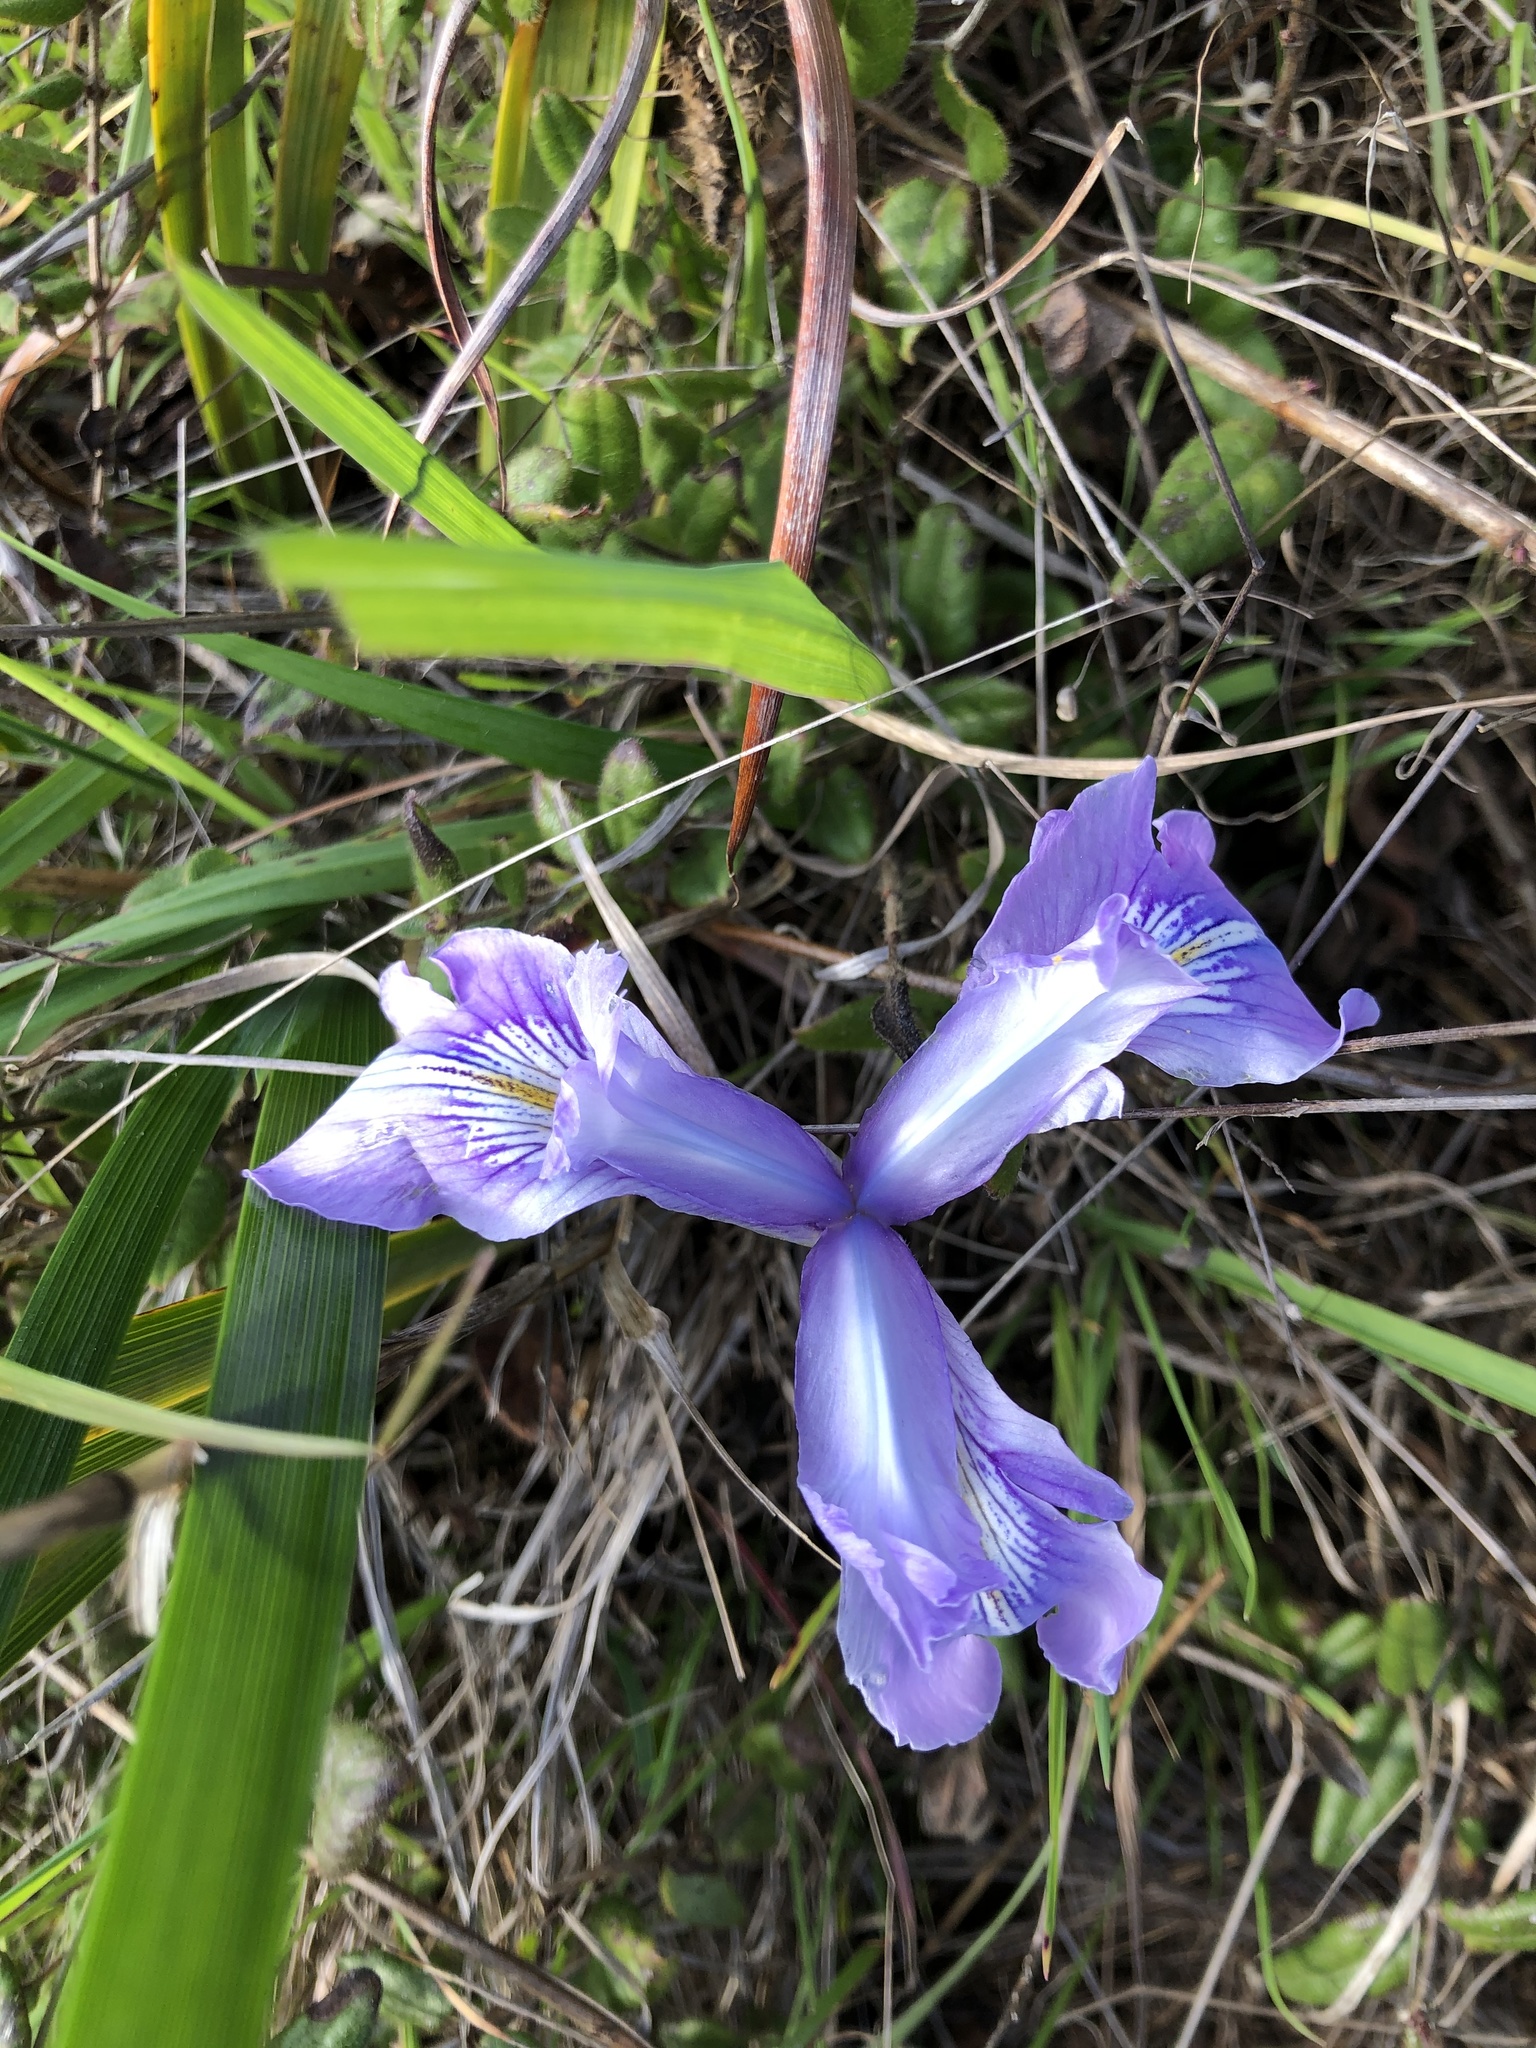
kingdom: Plantae
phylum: Tracheophyta
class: Liliopsida
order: Asparagales
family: Iridaceae
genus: Iris
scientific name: Iris douglasiana
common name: Marin iris
